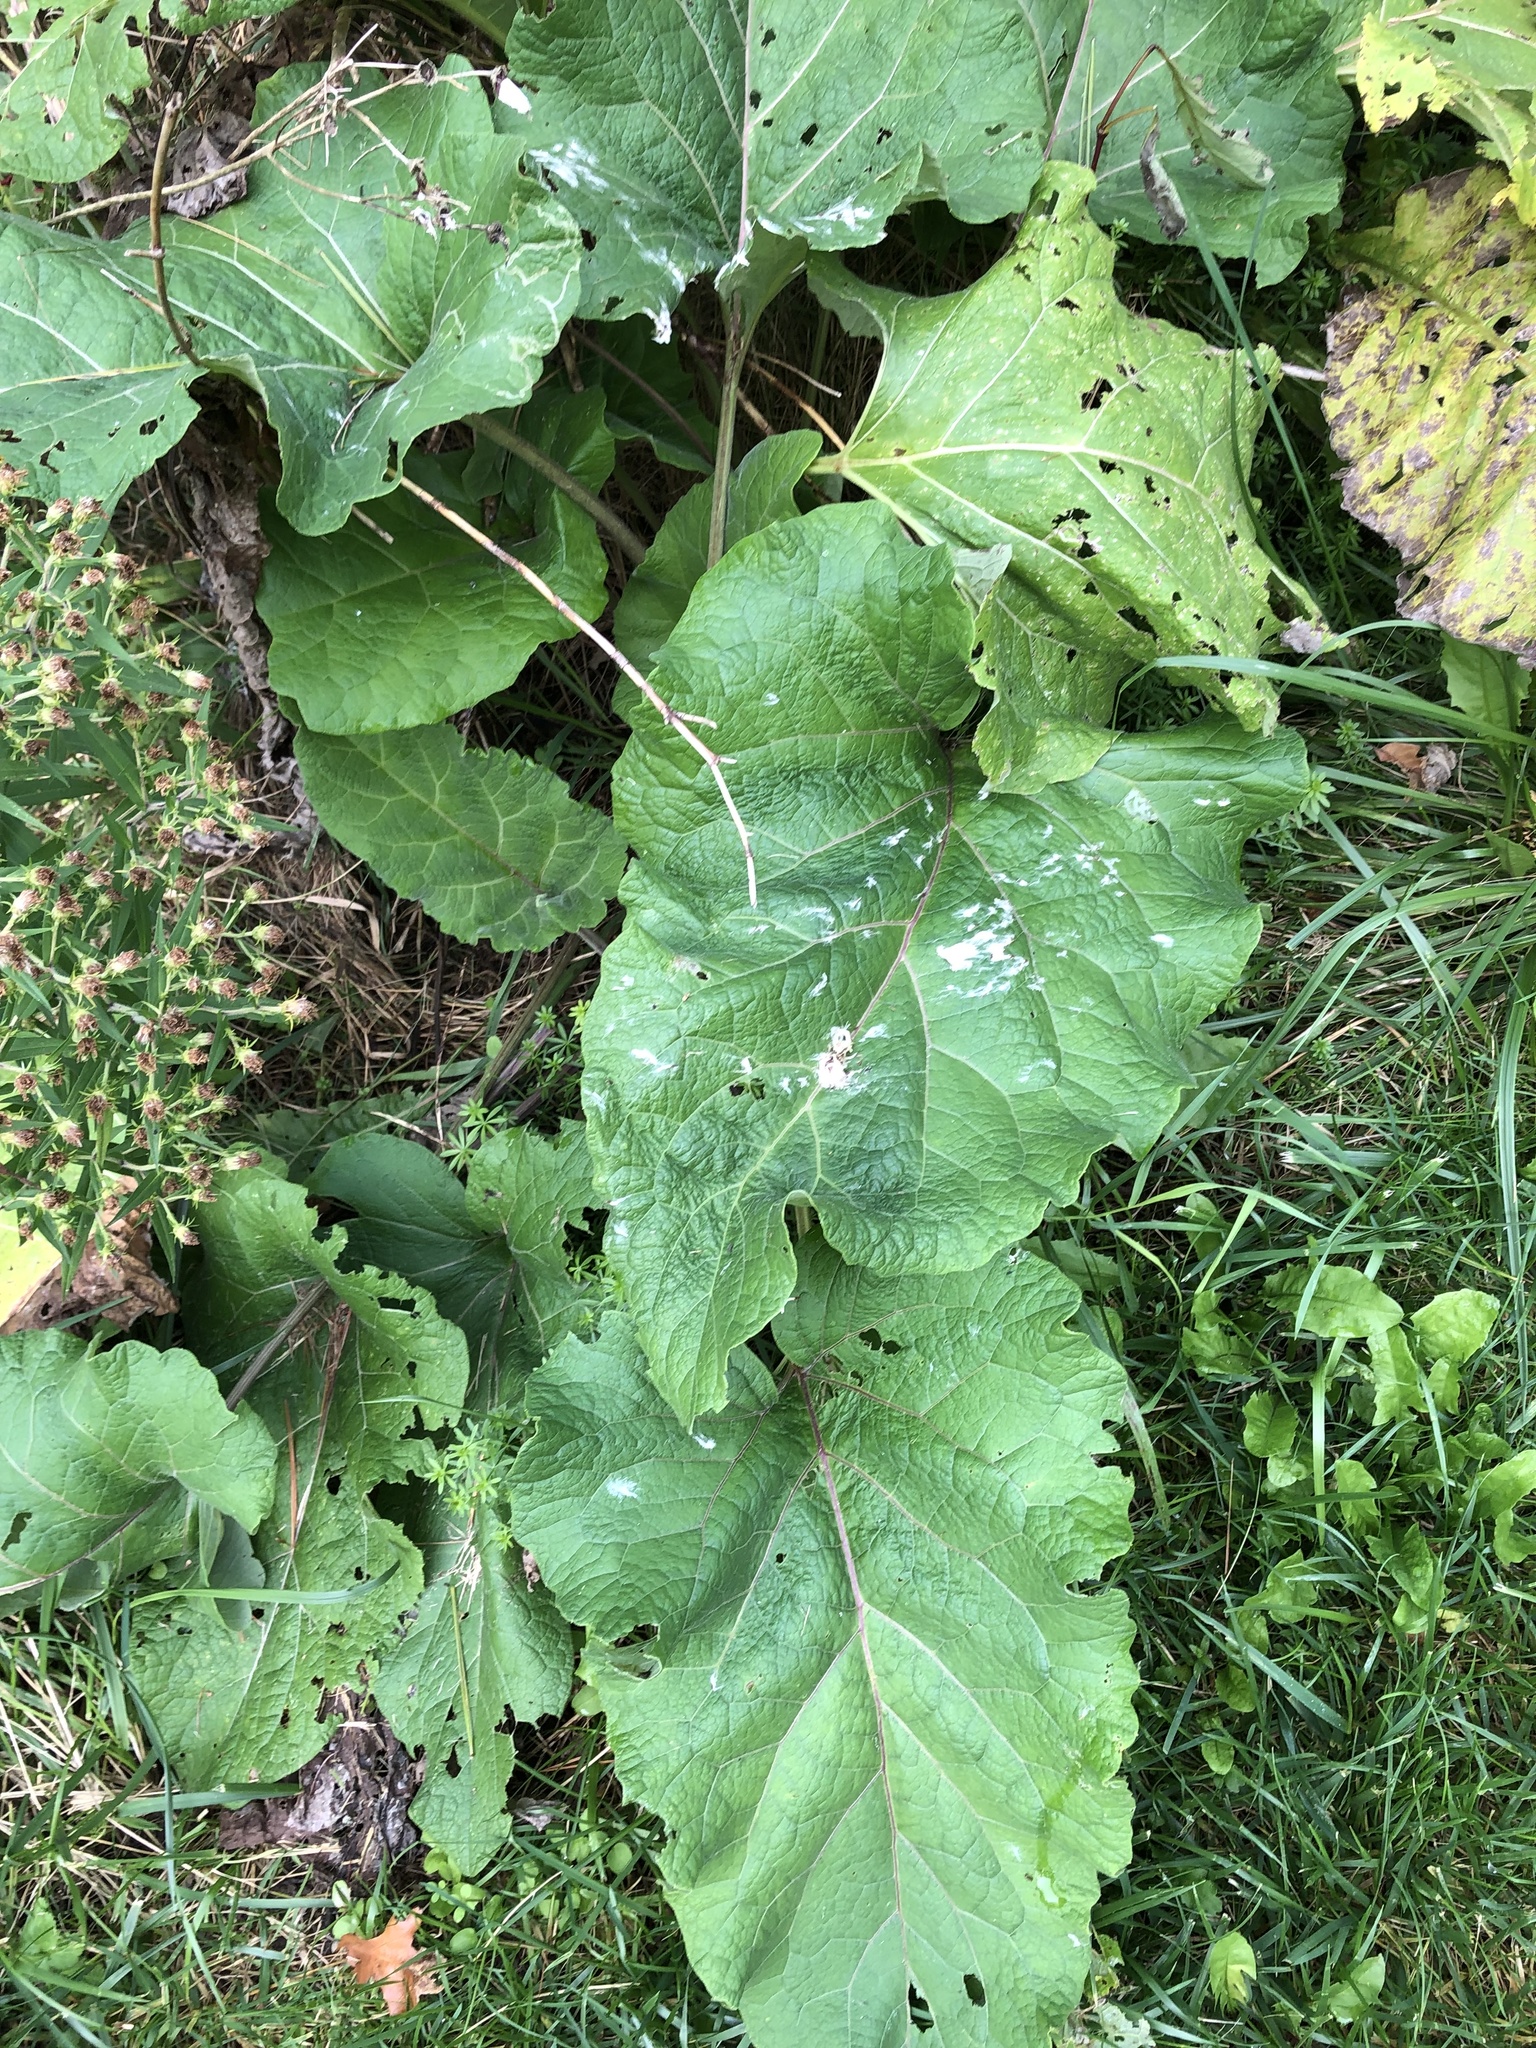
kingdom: Plantae
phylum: Tracheophyta
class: Magnoliopsida
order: Asterales
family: Asteraceae
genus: Arctium
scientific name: Arctium
